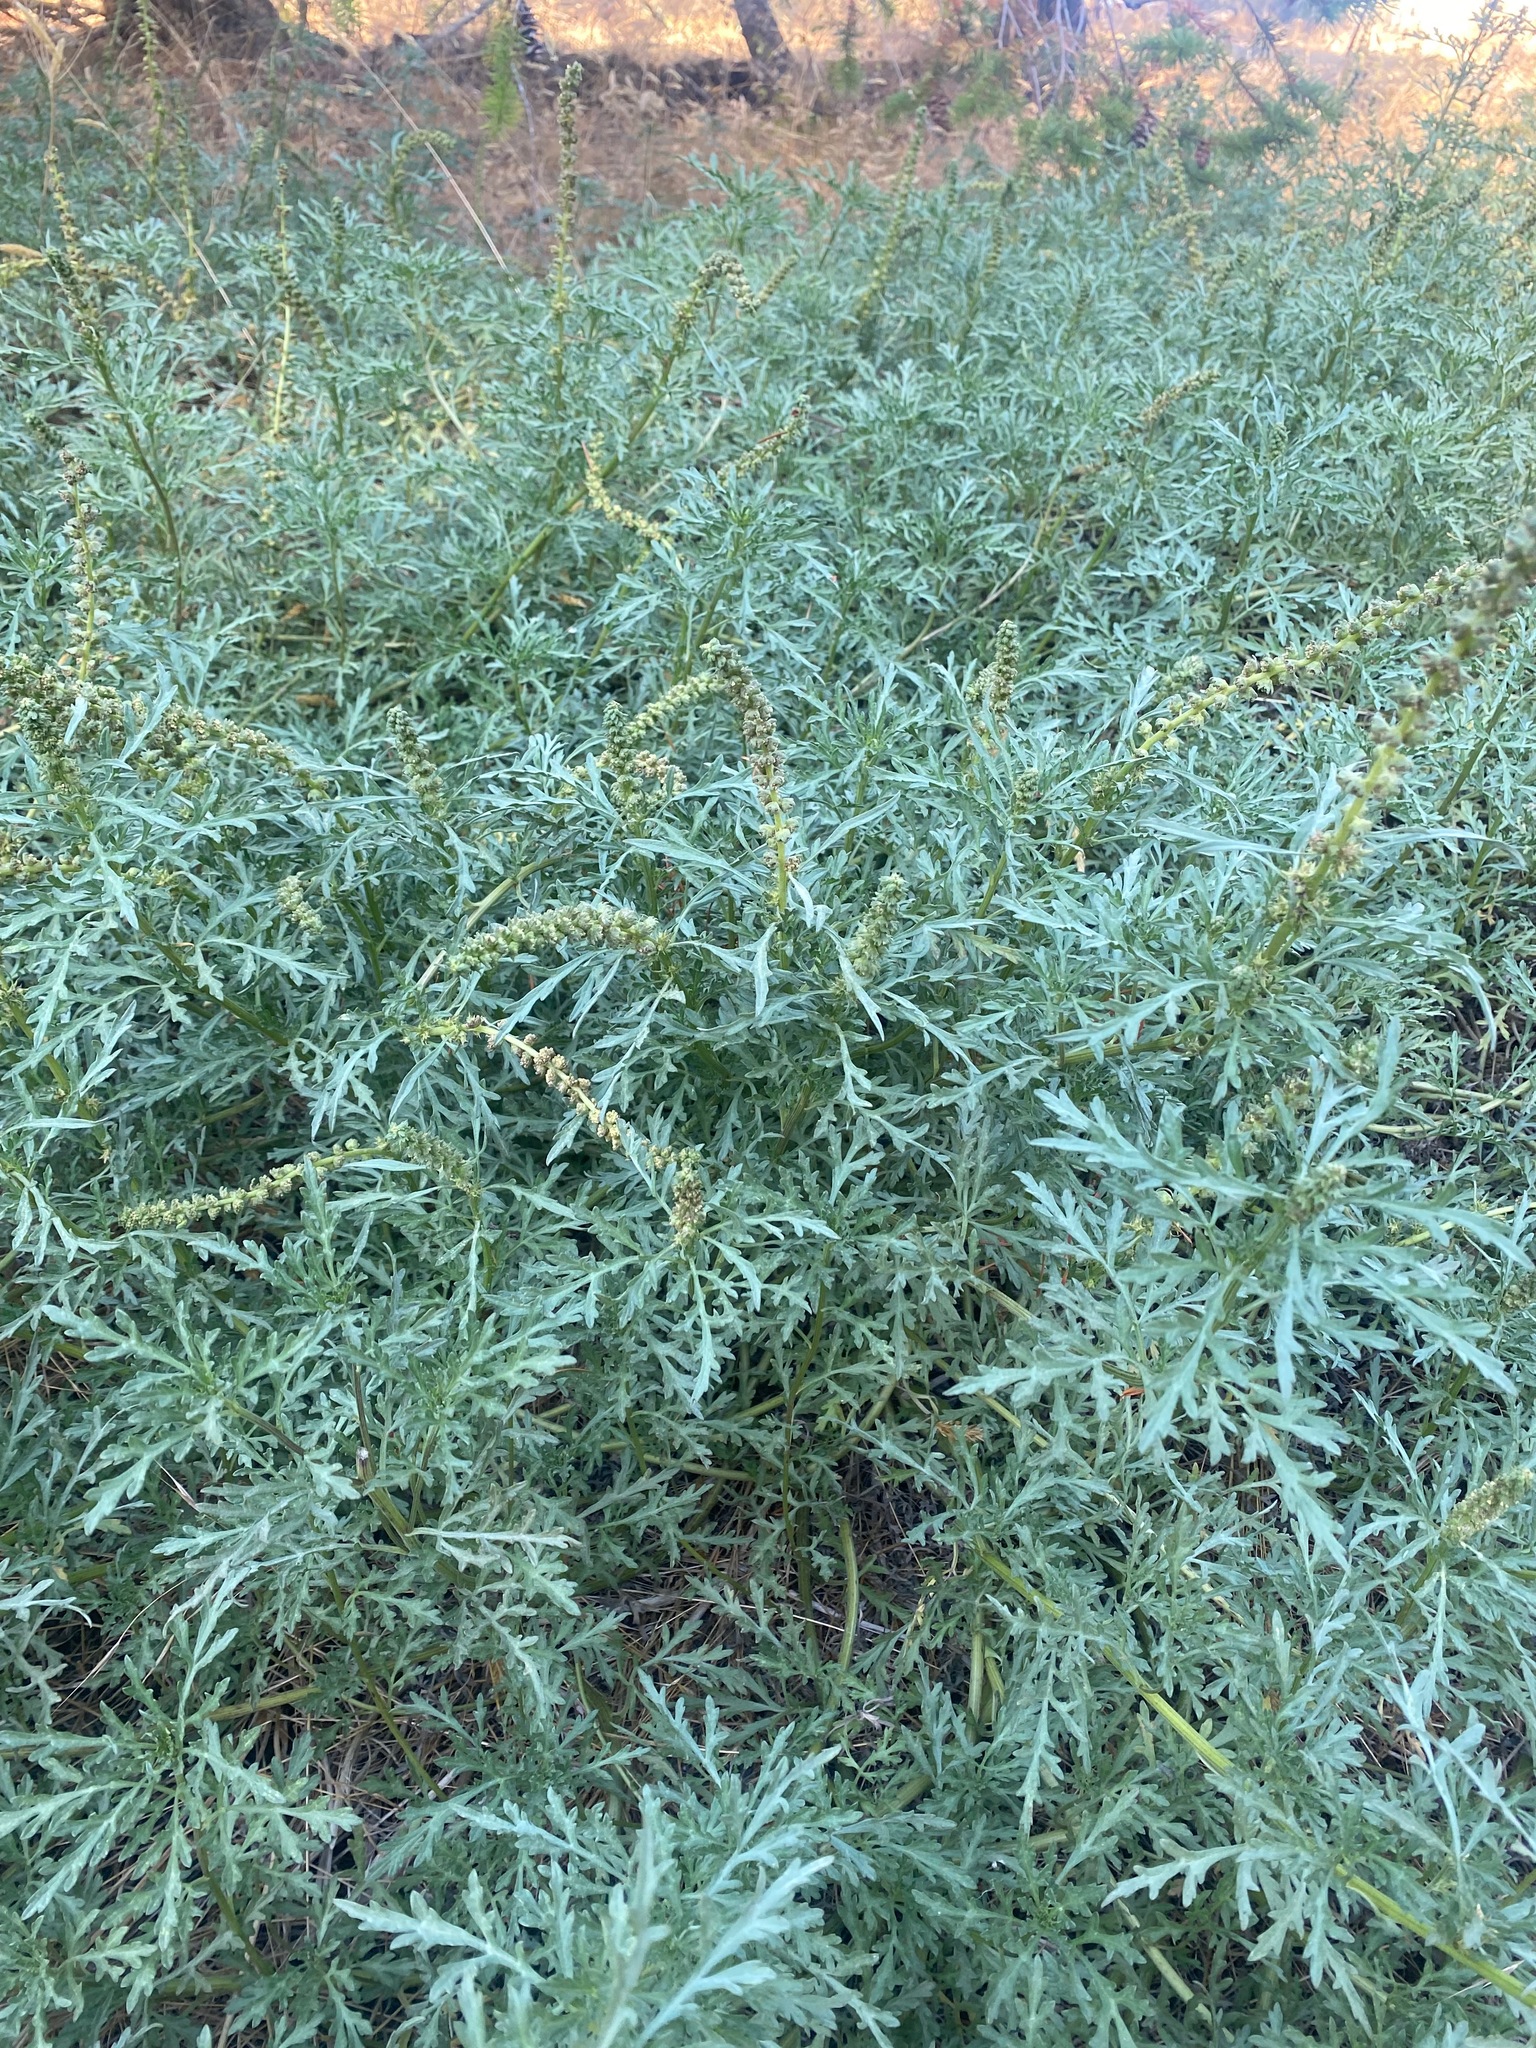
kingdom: Plantae
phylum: Tracheophyta
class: Magnoliopsida
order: Asterales
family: Asteraceae
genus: Ambrosia
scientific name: Ambrosia chamissonis
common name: Beachbur
